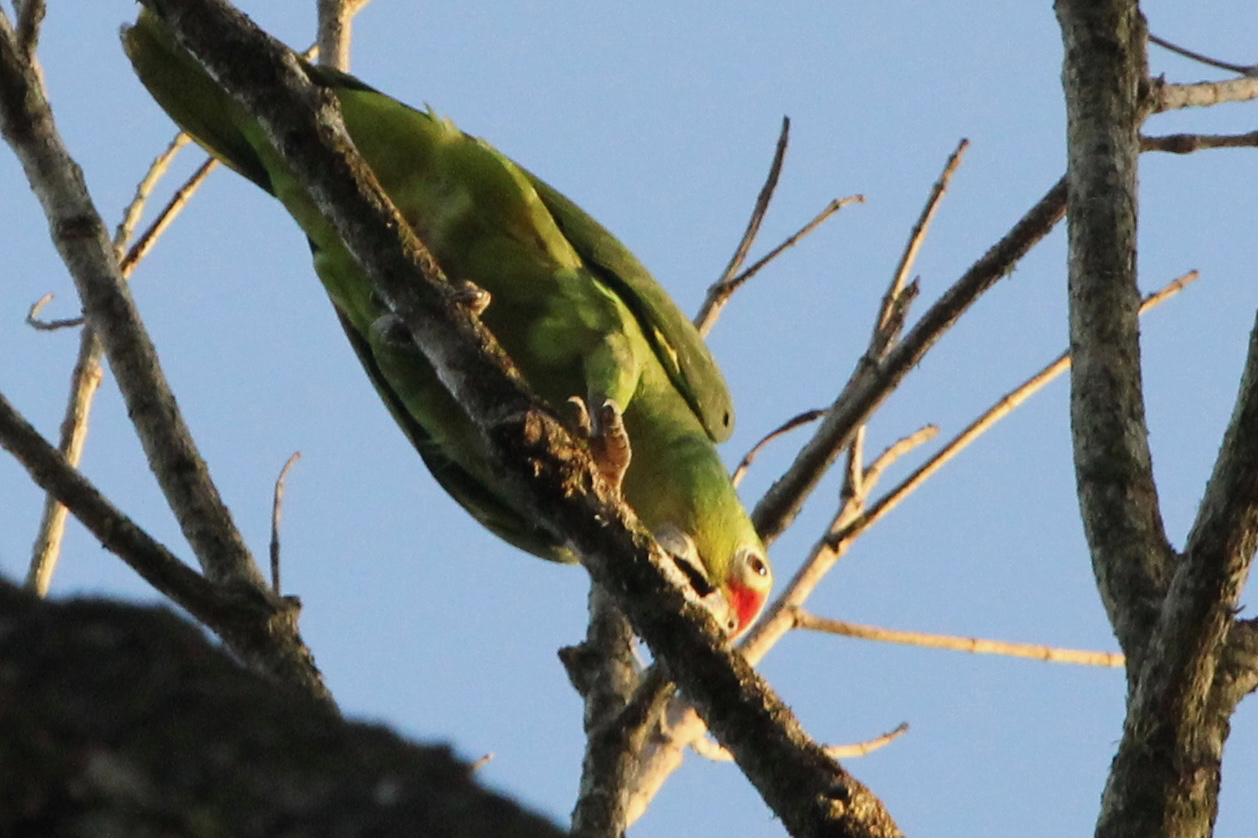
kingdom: Animalia
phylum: Chordata
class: Aves
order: Psittaciformes
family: Psittacidae
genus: Amazona
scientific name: Amazona autumnalis
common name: Red-lored amazon
